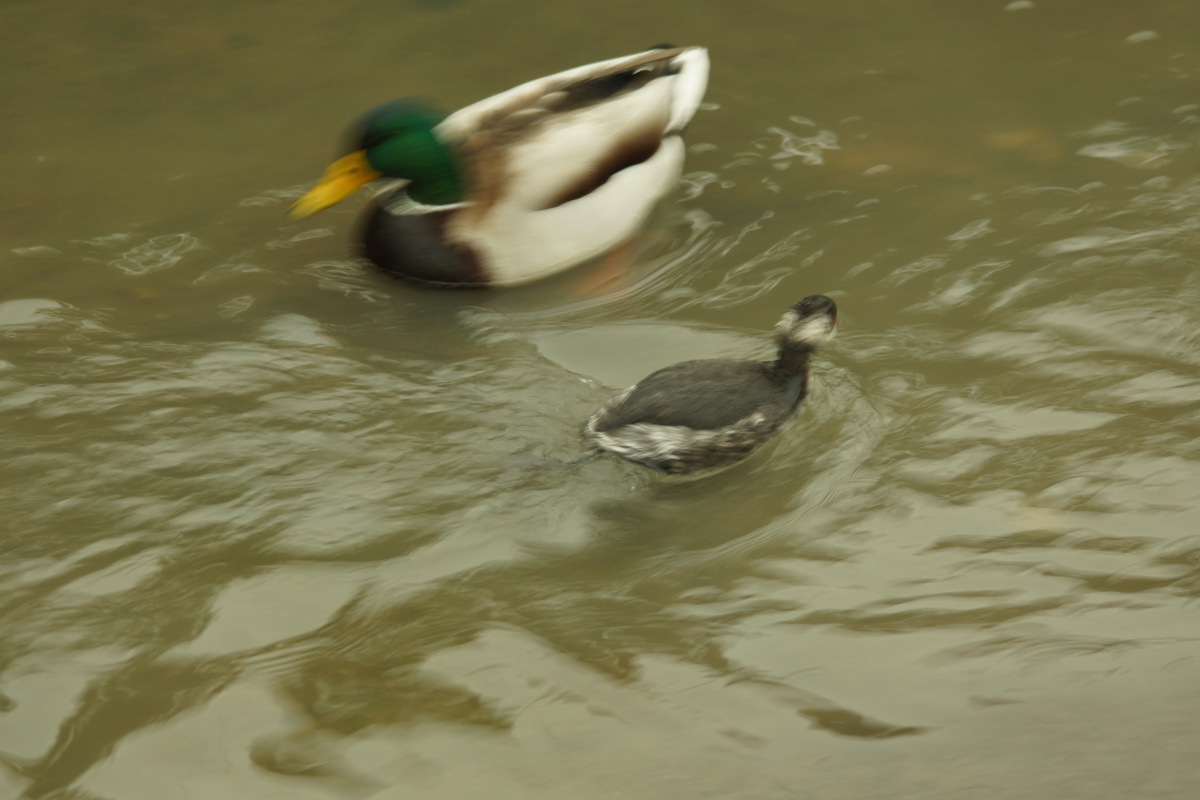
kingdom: Animalia
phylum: Chordata
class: Aves
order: Podicipediformes
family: Podicipedidae
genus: Podiceps
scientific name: Podiceps nigricollis
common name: Black-necked grebe
